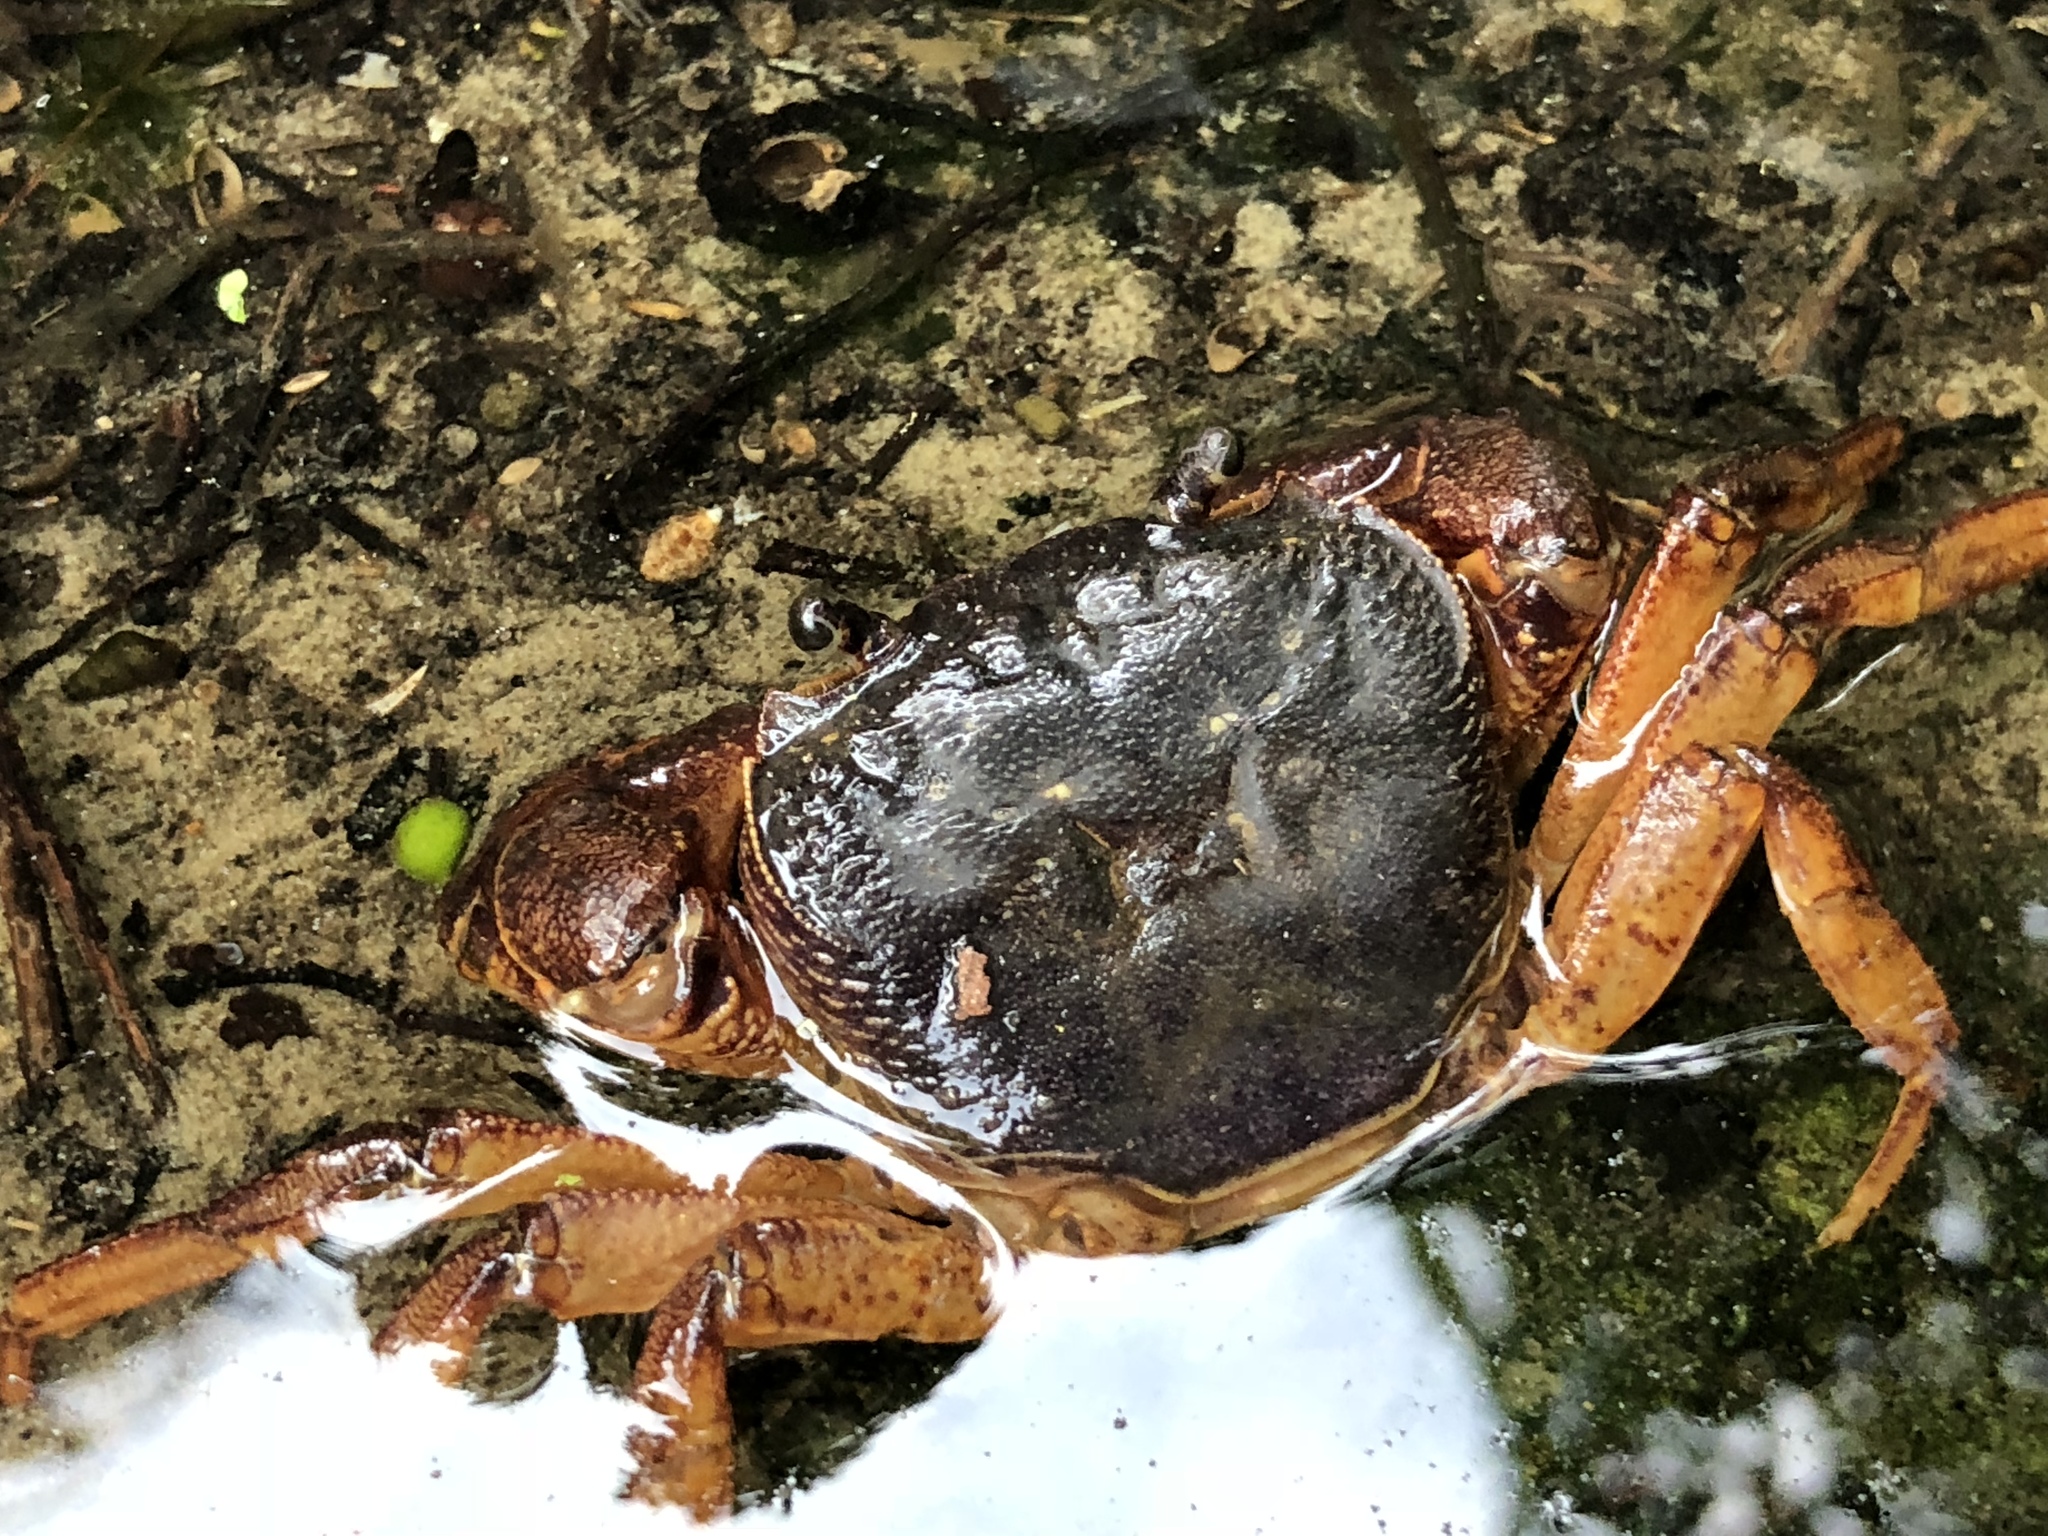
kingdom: Animalia
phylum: Arthropoda
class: Malacostraca
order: Decapoda
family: Potamidae
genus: Candidiopotamon
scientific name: Candidiopotamon rathbuni
